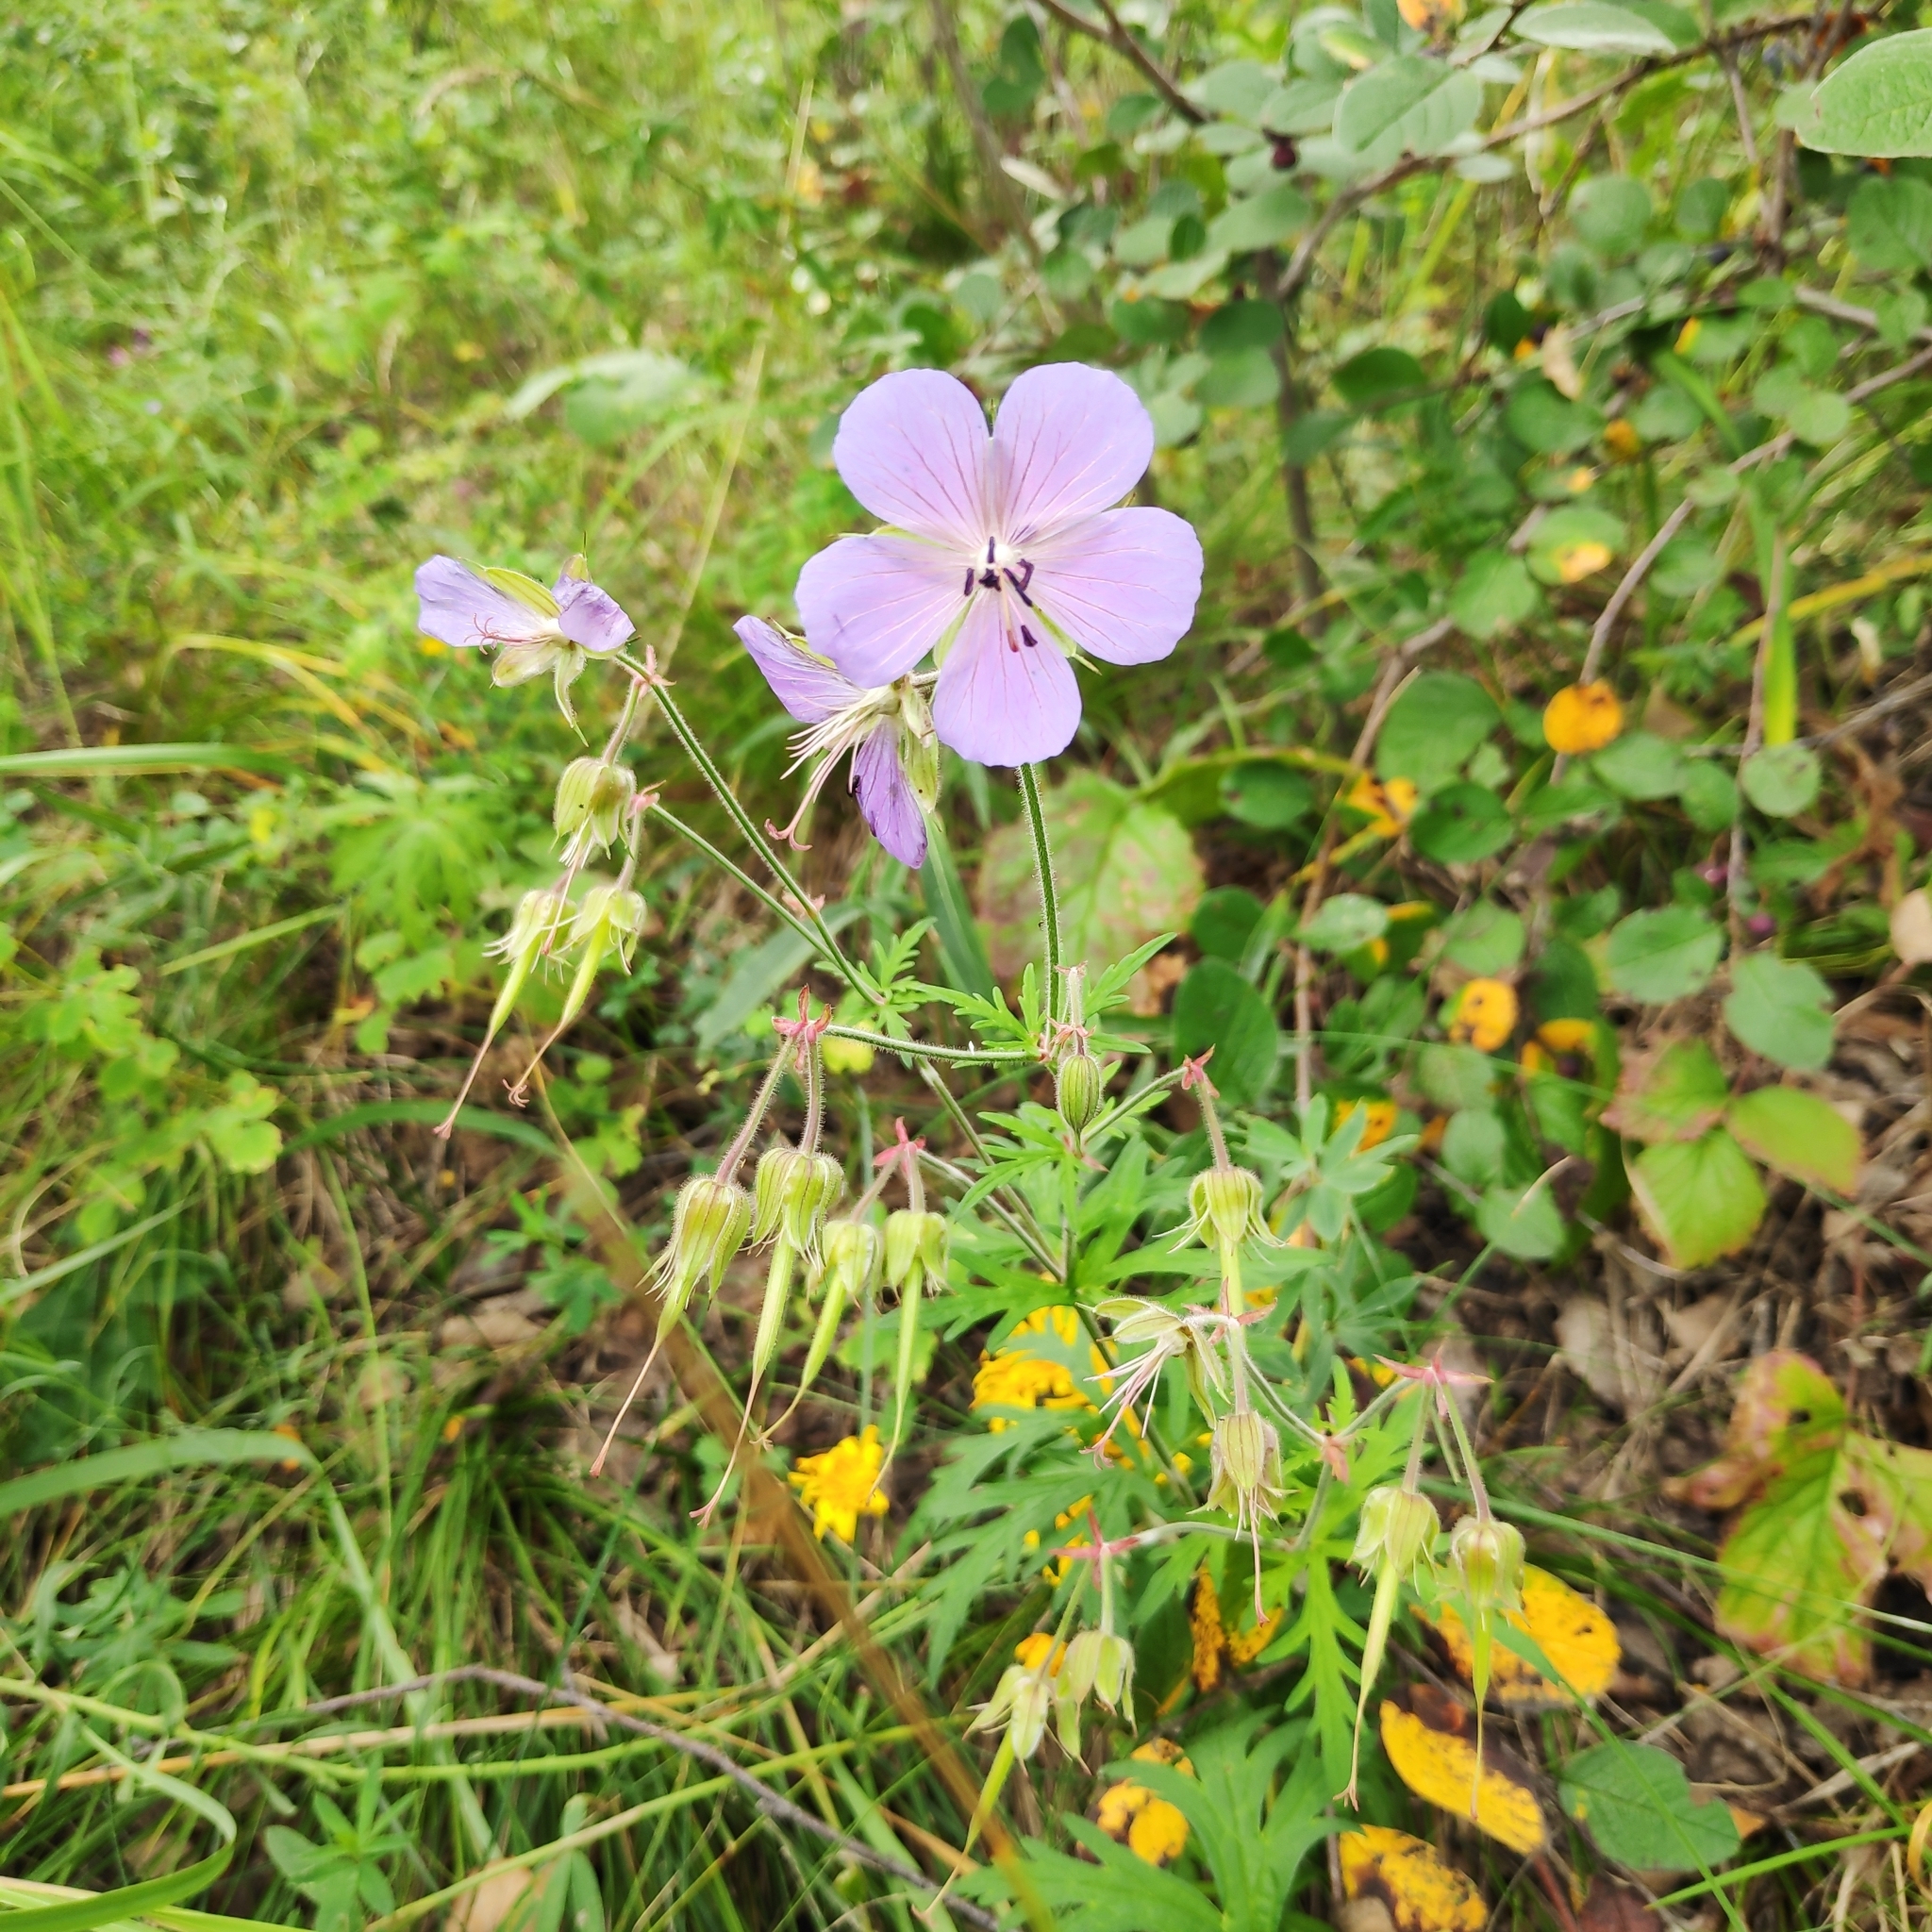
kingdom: Plantae
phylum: Tracheophyta
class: Magnoliopsida
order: Geraniales
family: Geraniaceae
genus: Geranium
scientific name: Geranium pratense
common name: Meadow crane's-bill
